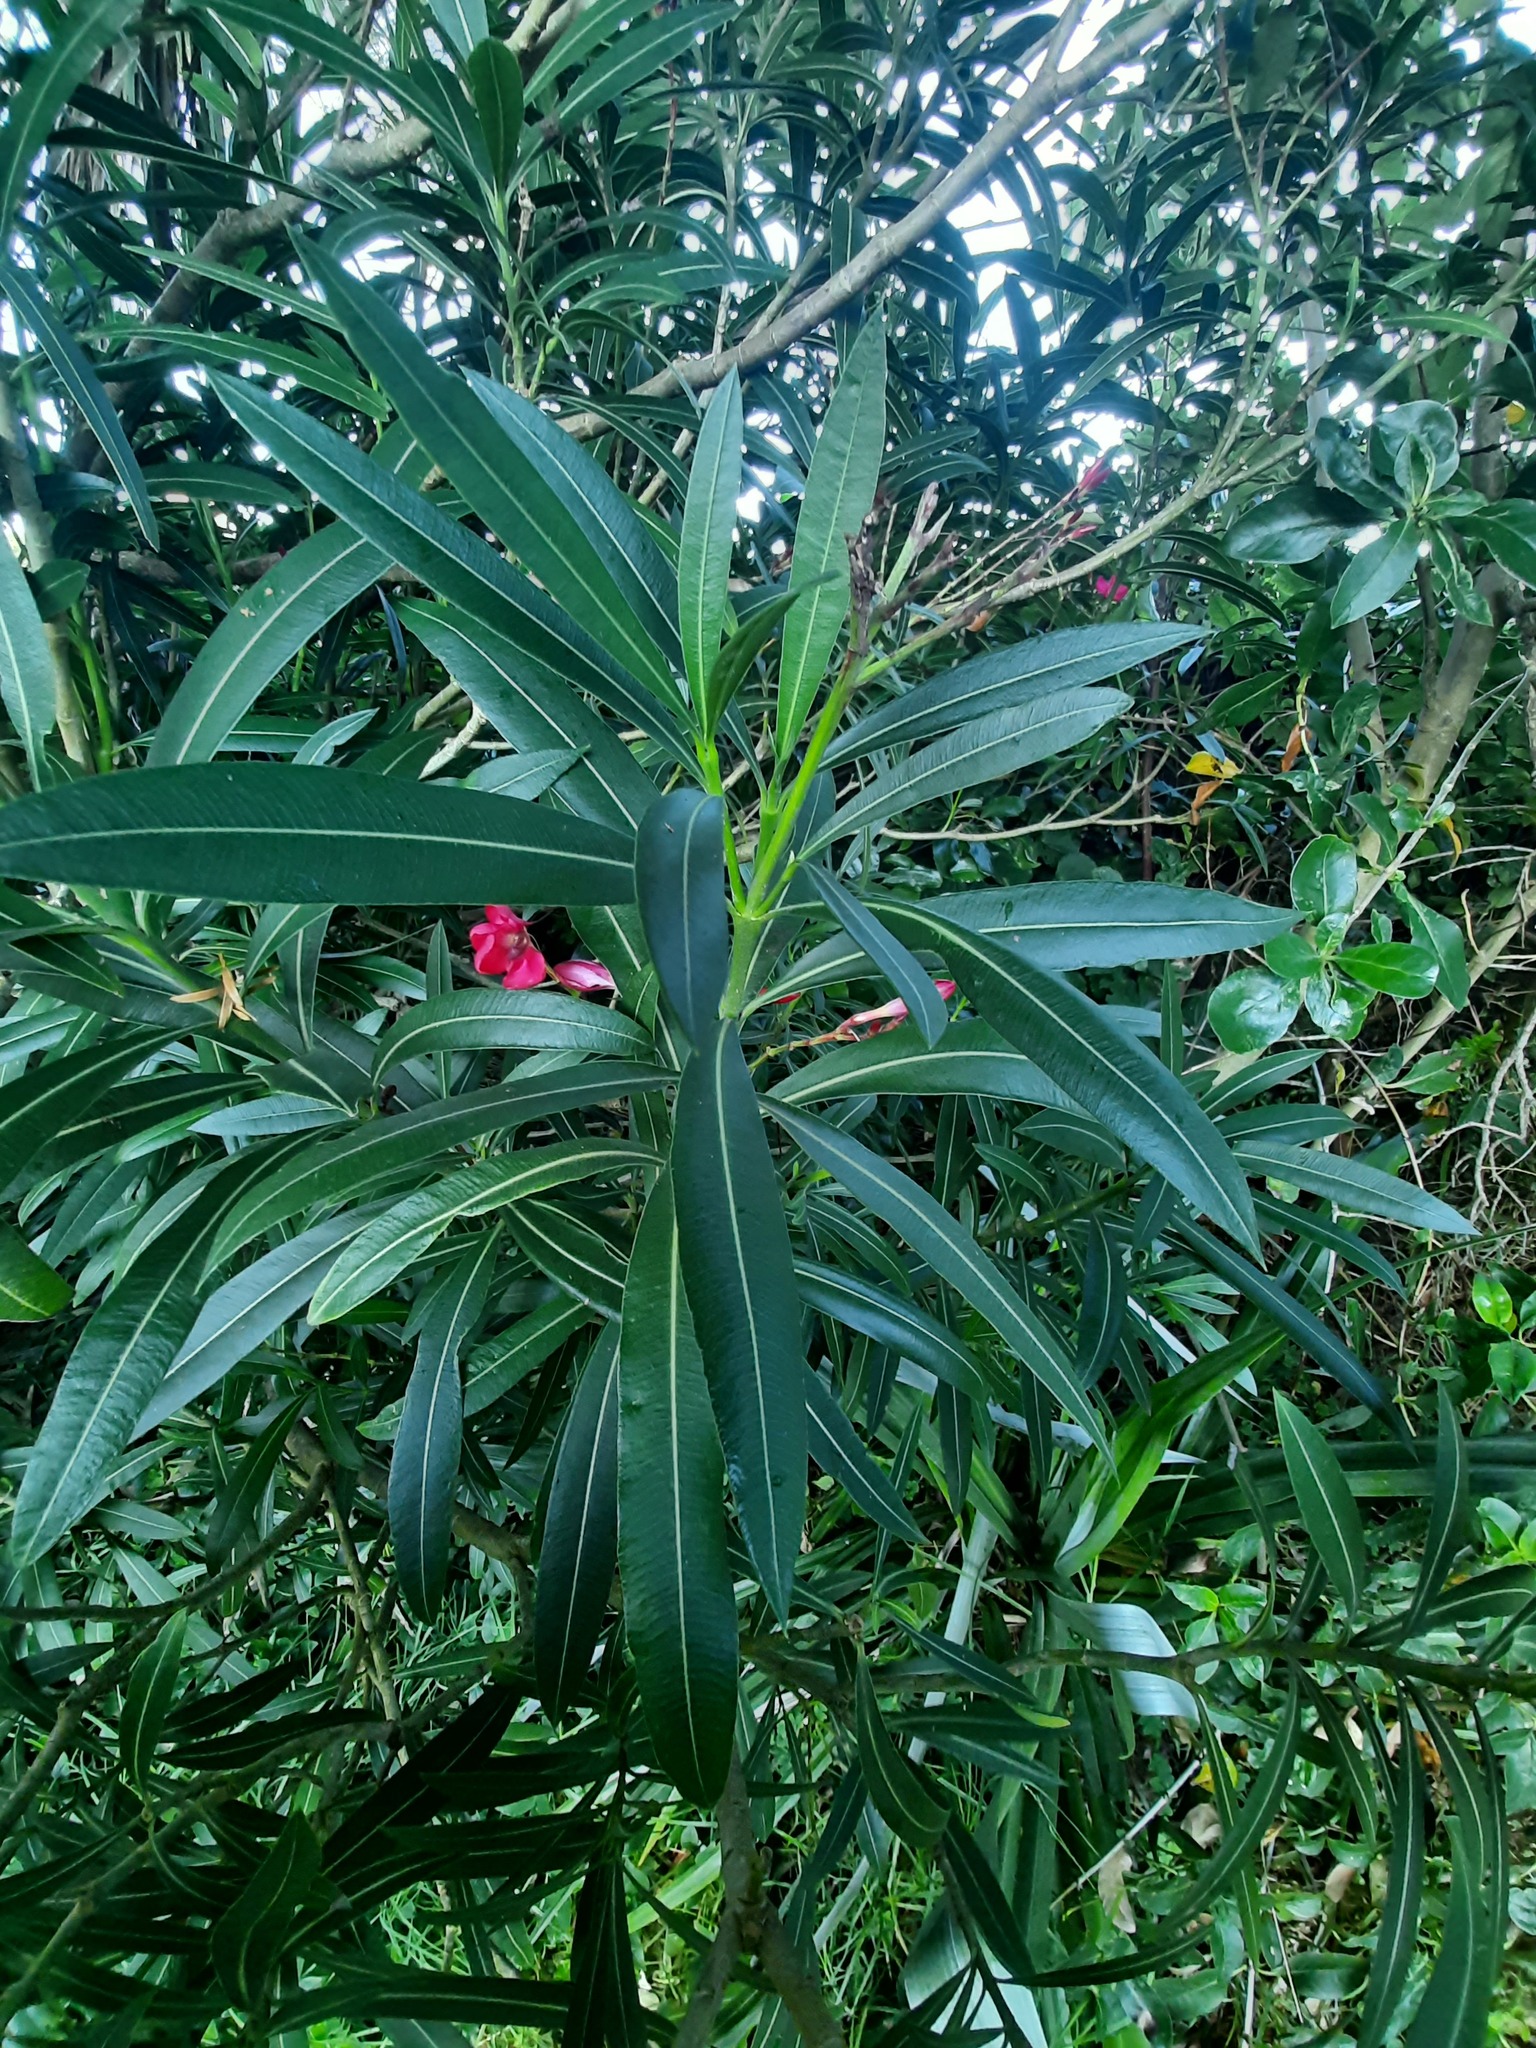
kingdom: Plantae
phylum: Tracheophyta
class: Magnoliopsida
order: Gentianales
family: Apocynaceae
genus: Nerium
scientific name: Nerium oleander
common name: Oleander
